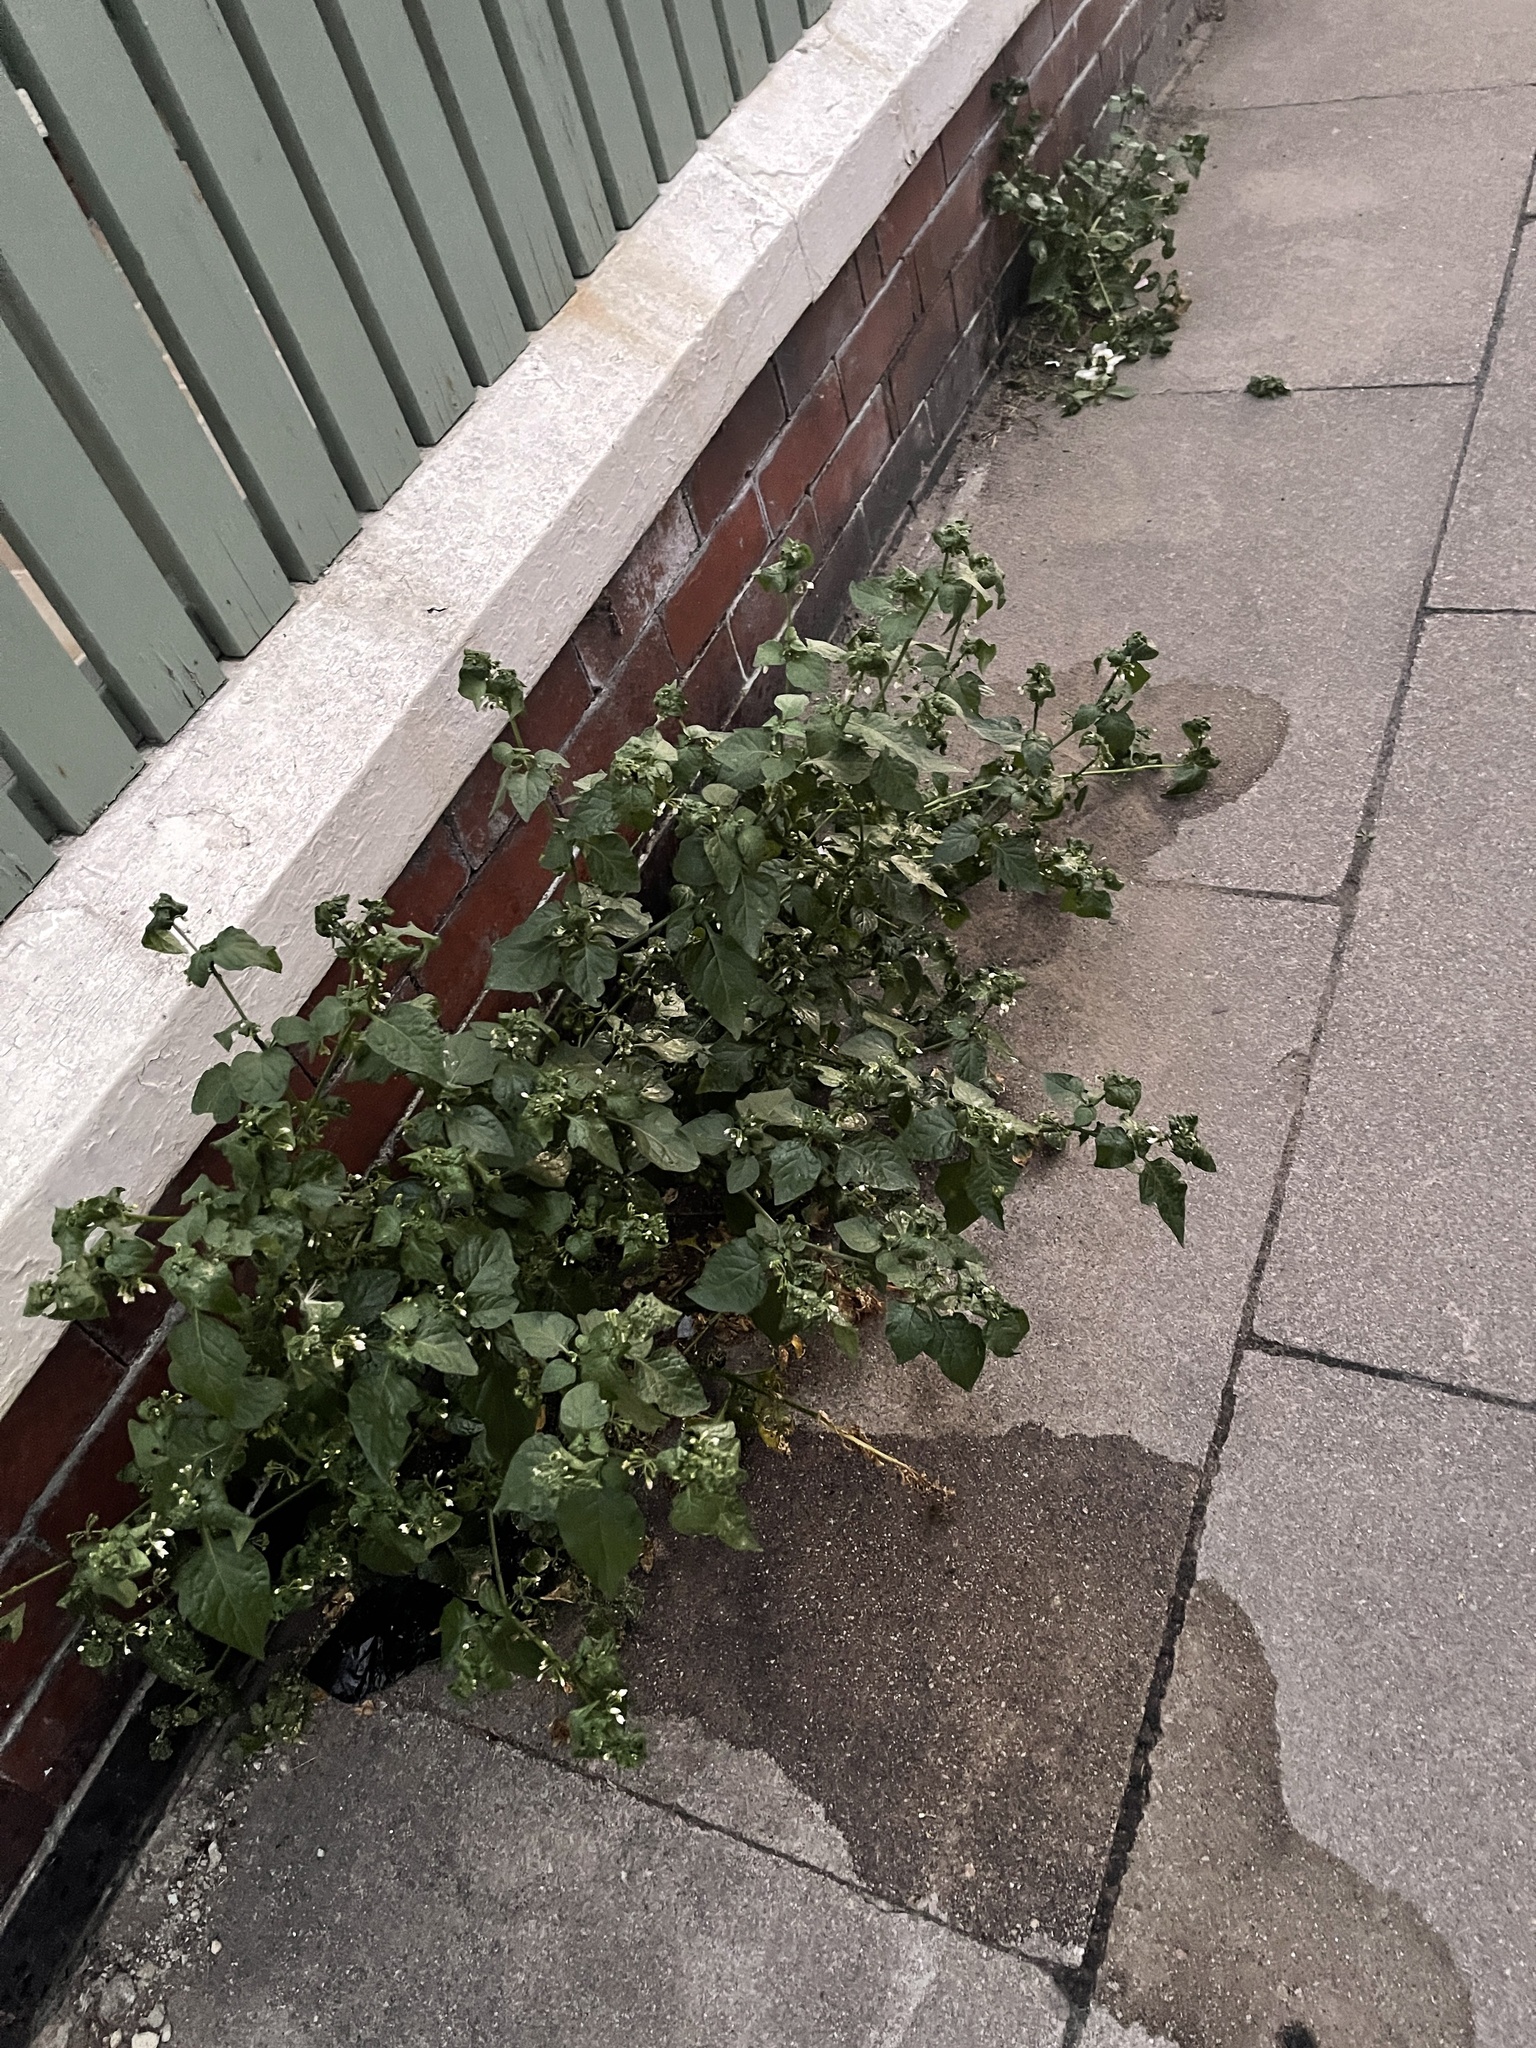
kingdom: Plantae
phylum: Tracheophyta
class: Magnoliopsida
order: Solanales
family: Solanaceae
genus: Solanum
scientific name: Solanum nigrum
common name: Black nightshade
